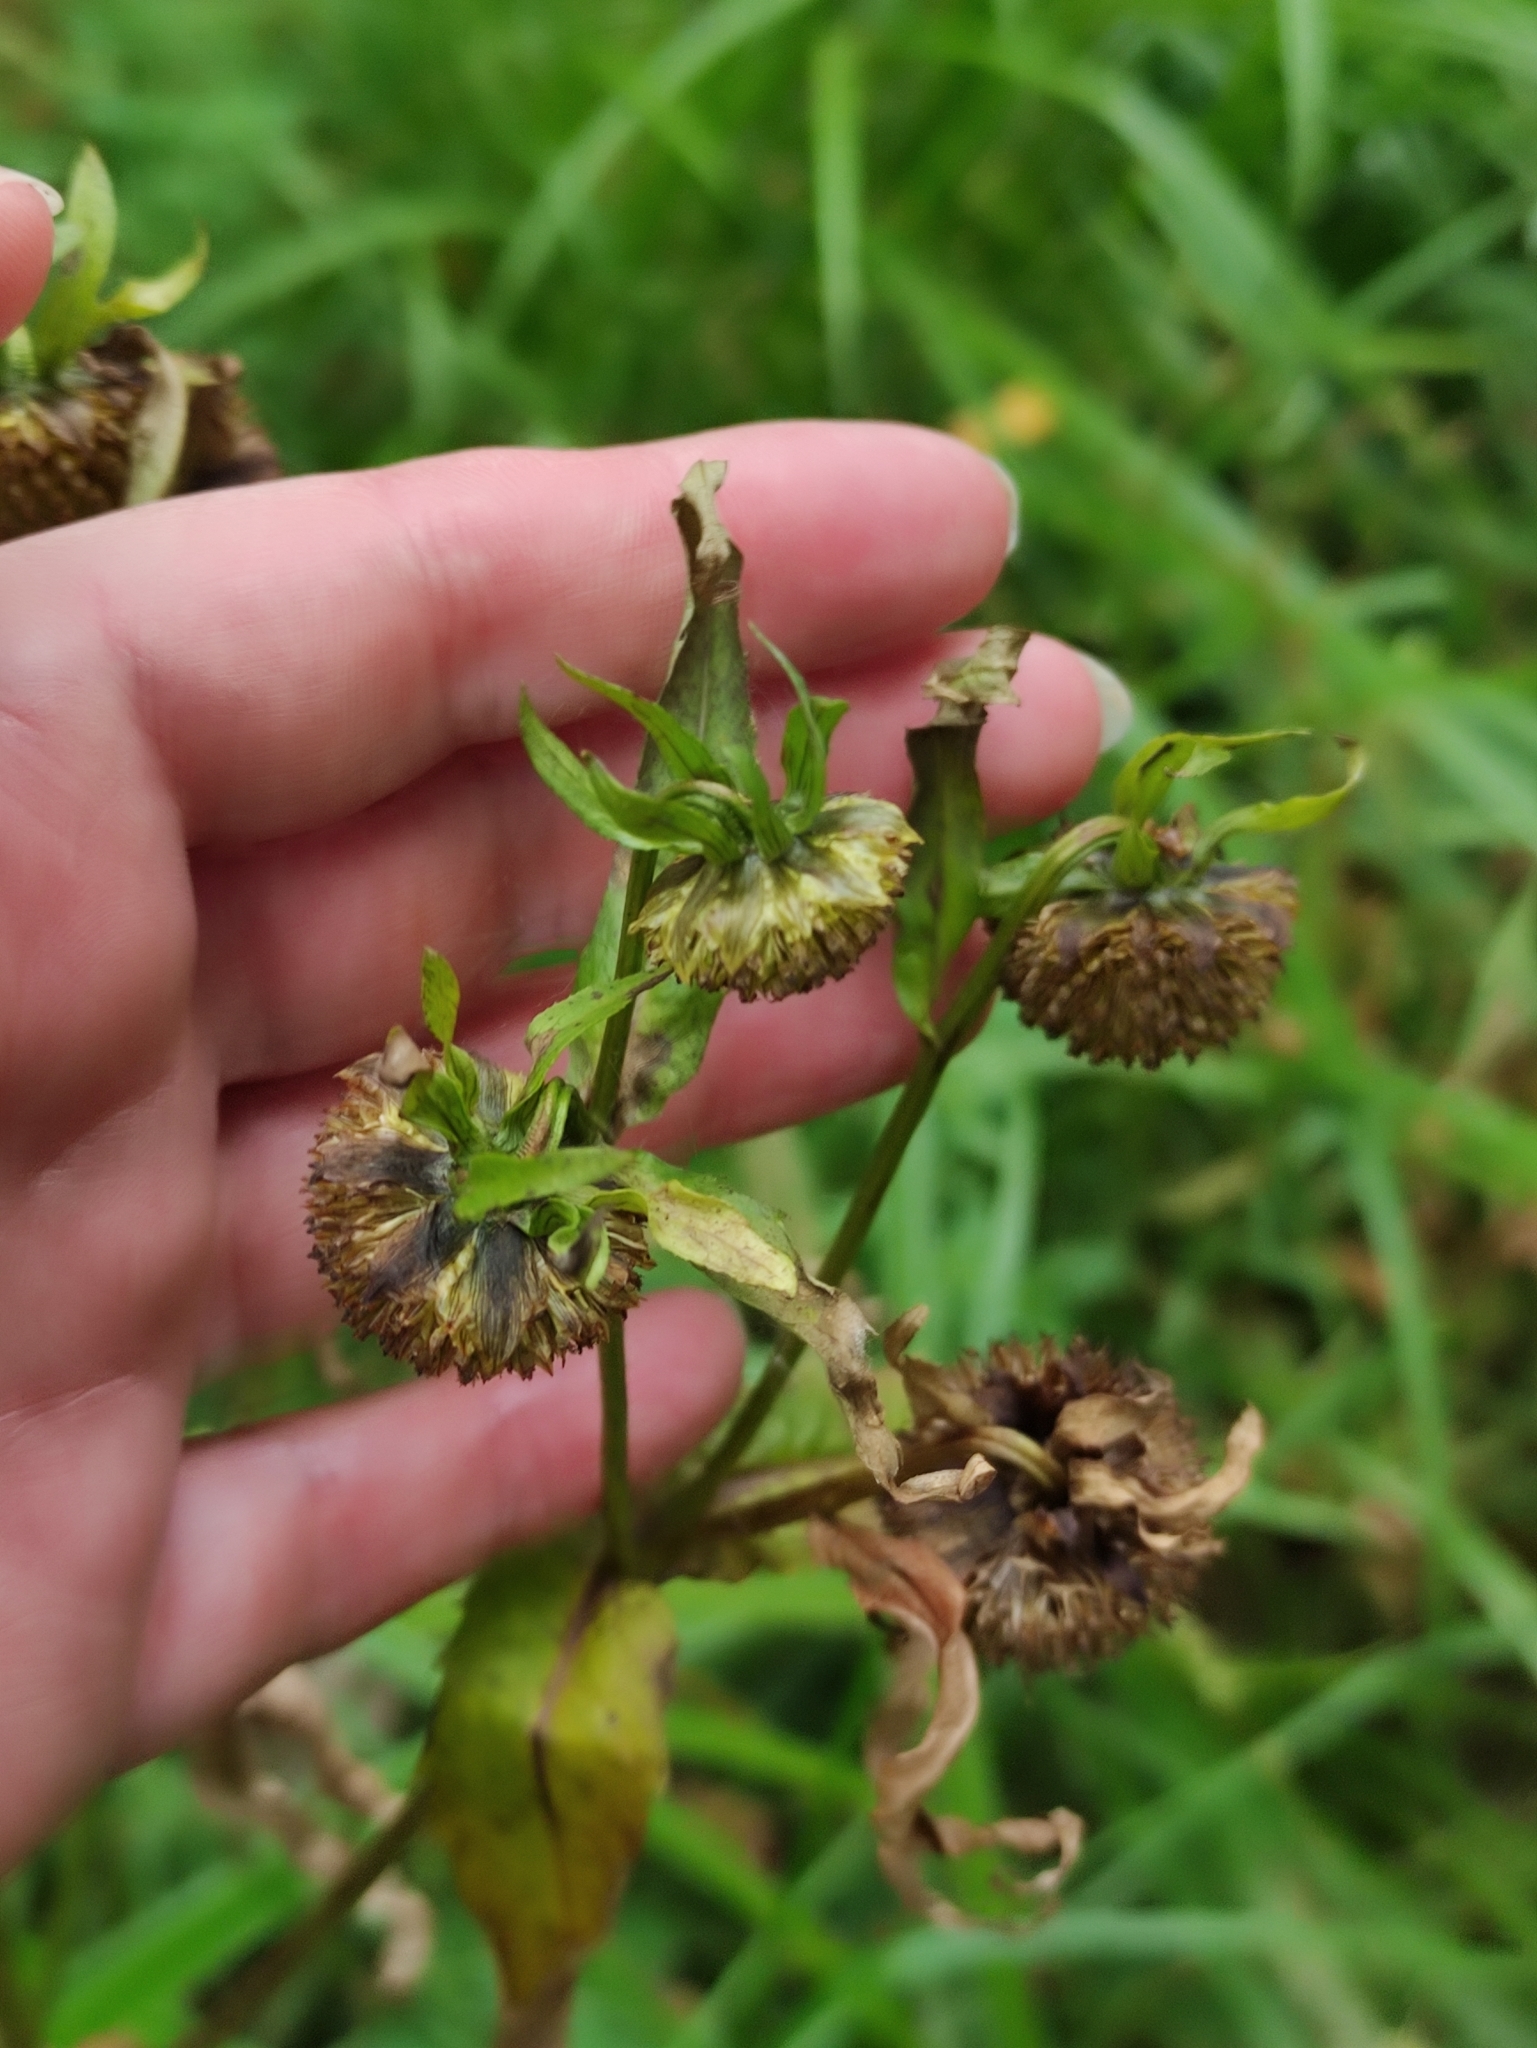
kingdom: Plantae
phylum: Tracheophyta
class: Magnoliopsida
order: Asterales
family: Asteraceae
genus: Bidens
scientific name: Bidens cernua
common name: Nodding bur-marigold
